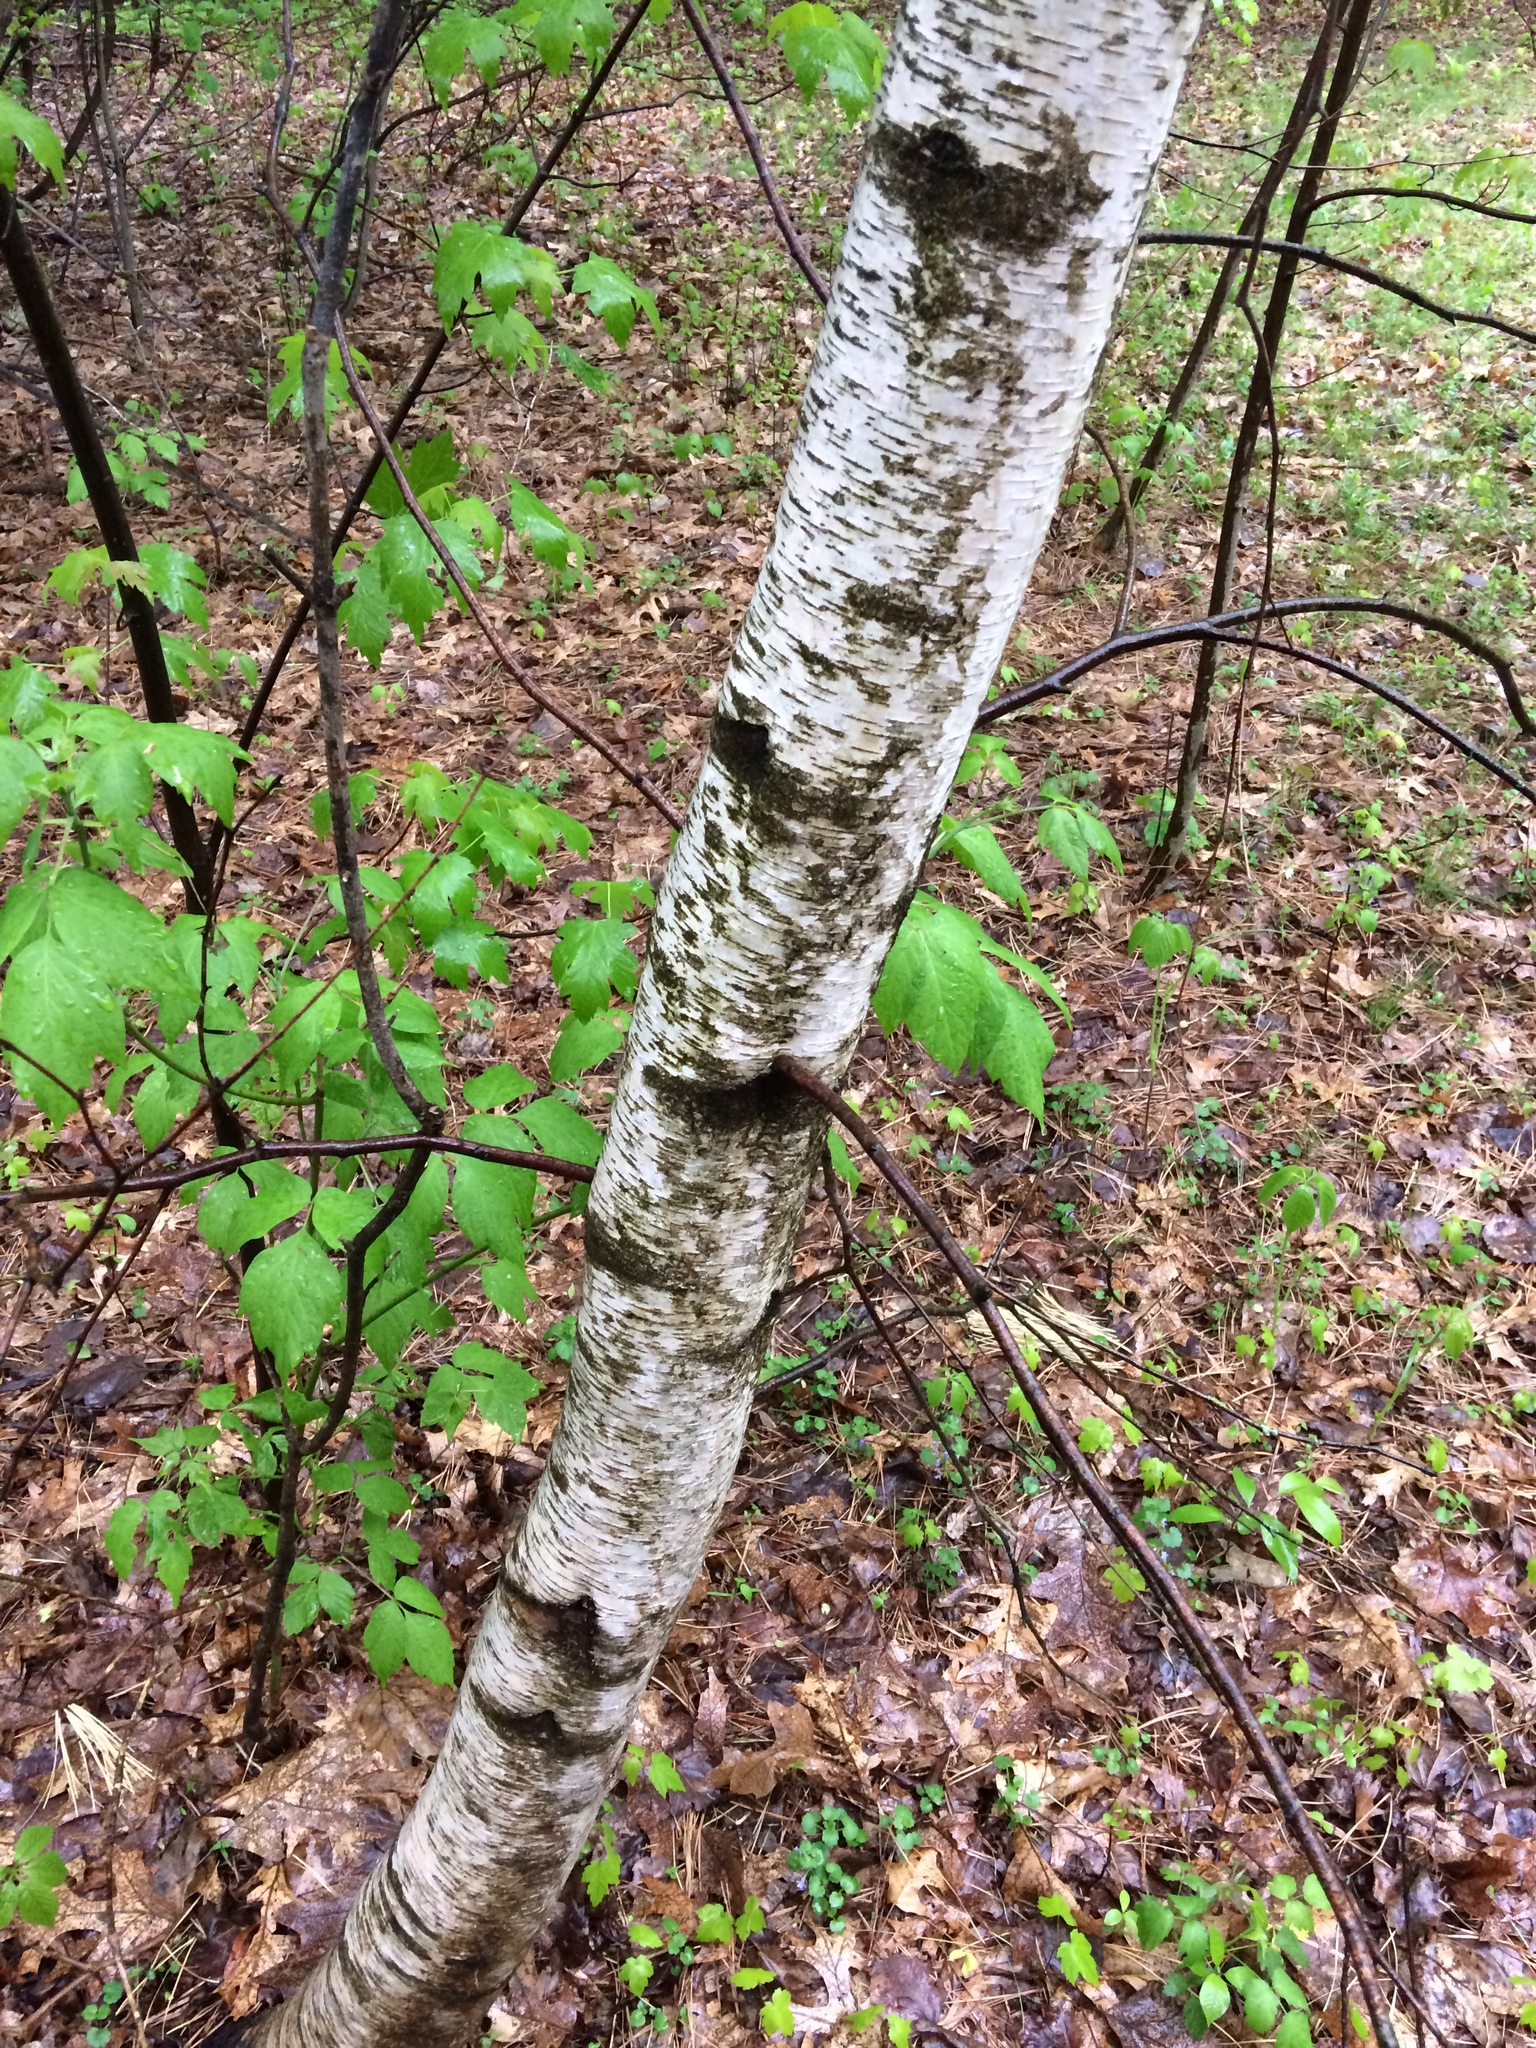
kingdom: Plantae
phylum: Tracheophyta
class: Magnoliopsida
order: Fagales
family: Betulaceae
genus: Betula
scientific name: Betula populifolia
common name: Fire birch
